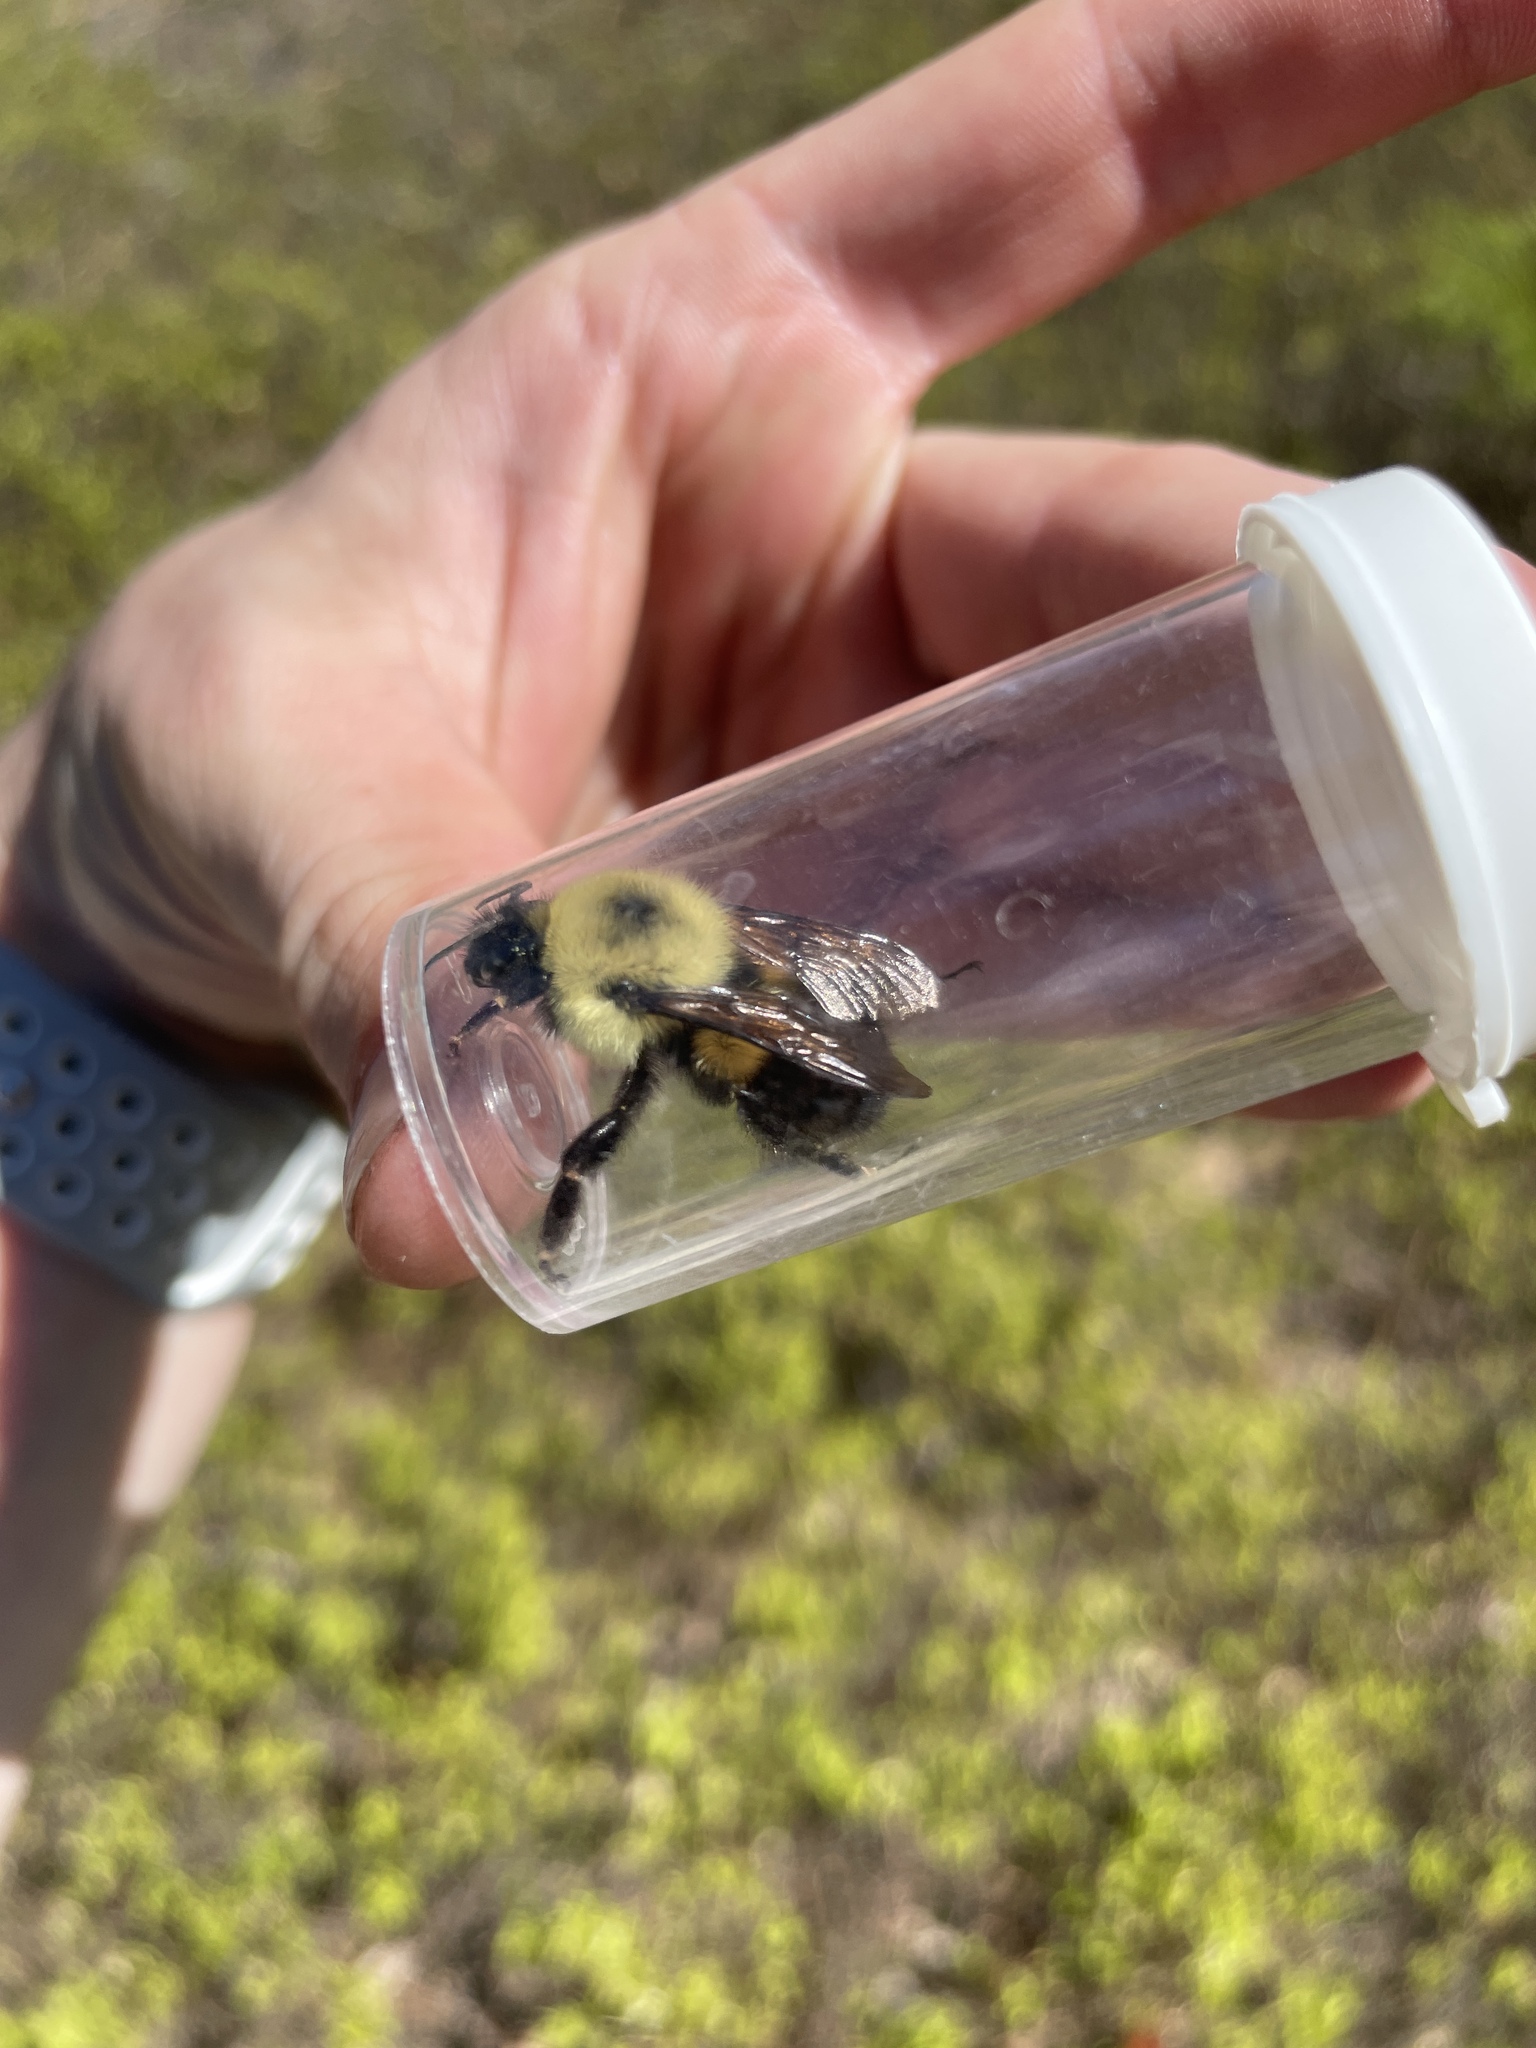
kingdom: Animalia
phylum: Arthropoda
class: Insecta
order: Hymenoptera
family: Apidae
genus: Bombus
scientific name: Bombus bimaculatus
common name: Two-spotted bumble bee
